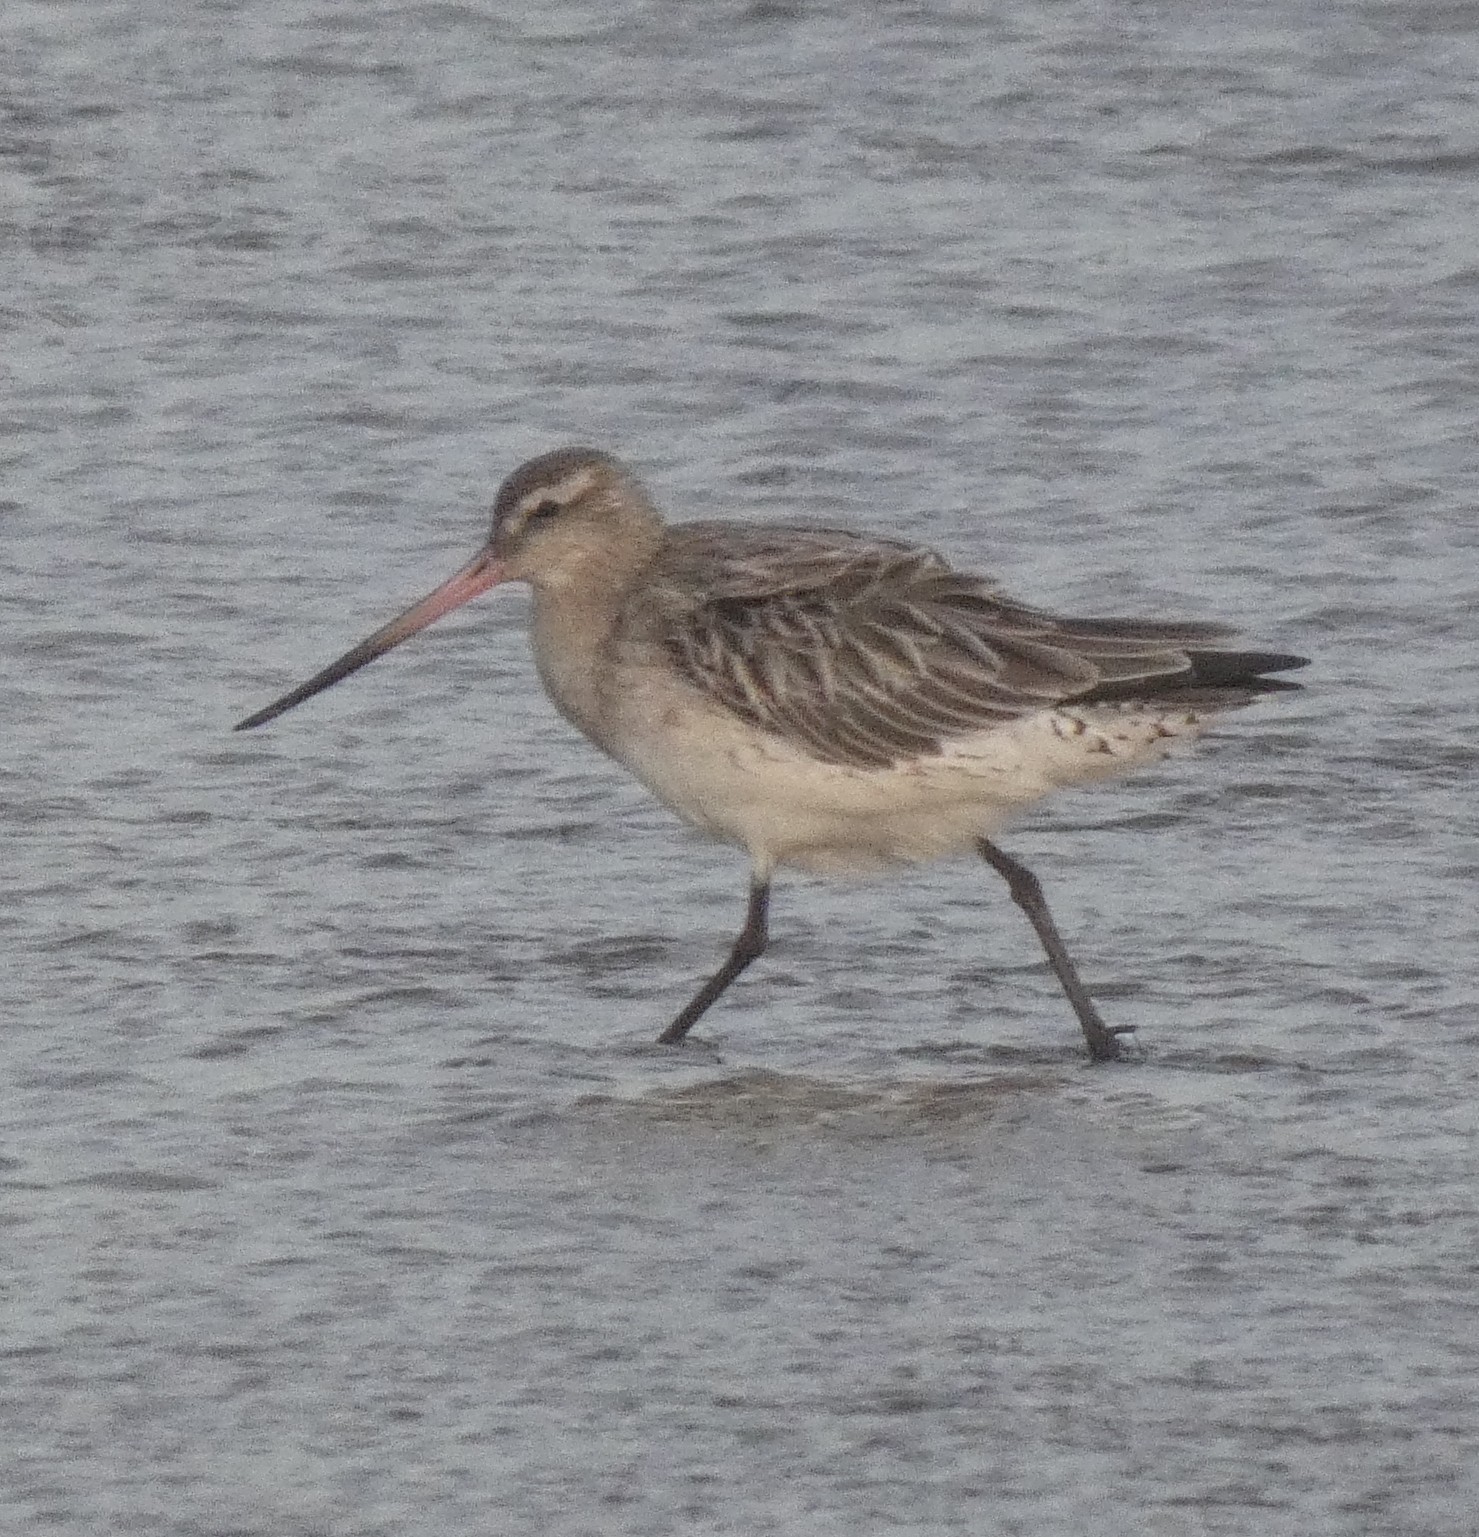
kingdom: Animalia
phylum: Chordata
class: Aves
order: Charadriiformes
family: Scolopacidae
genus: Limosa
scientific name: Limosa lapponica
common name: Bar-tailed godwit
